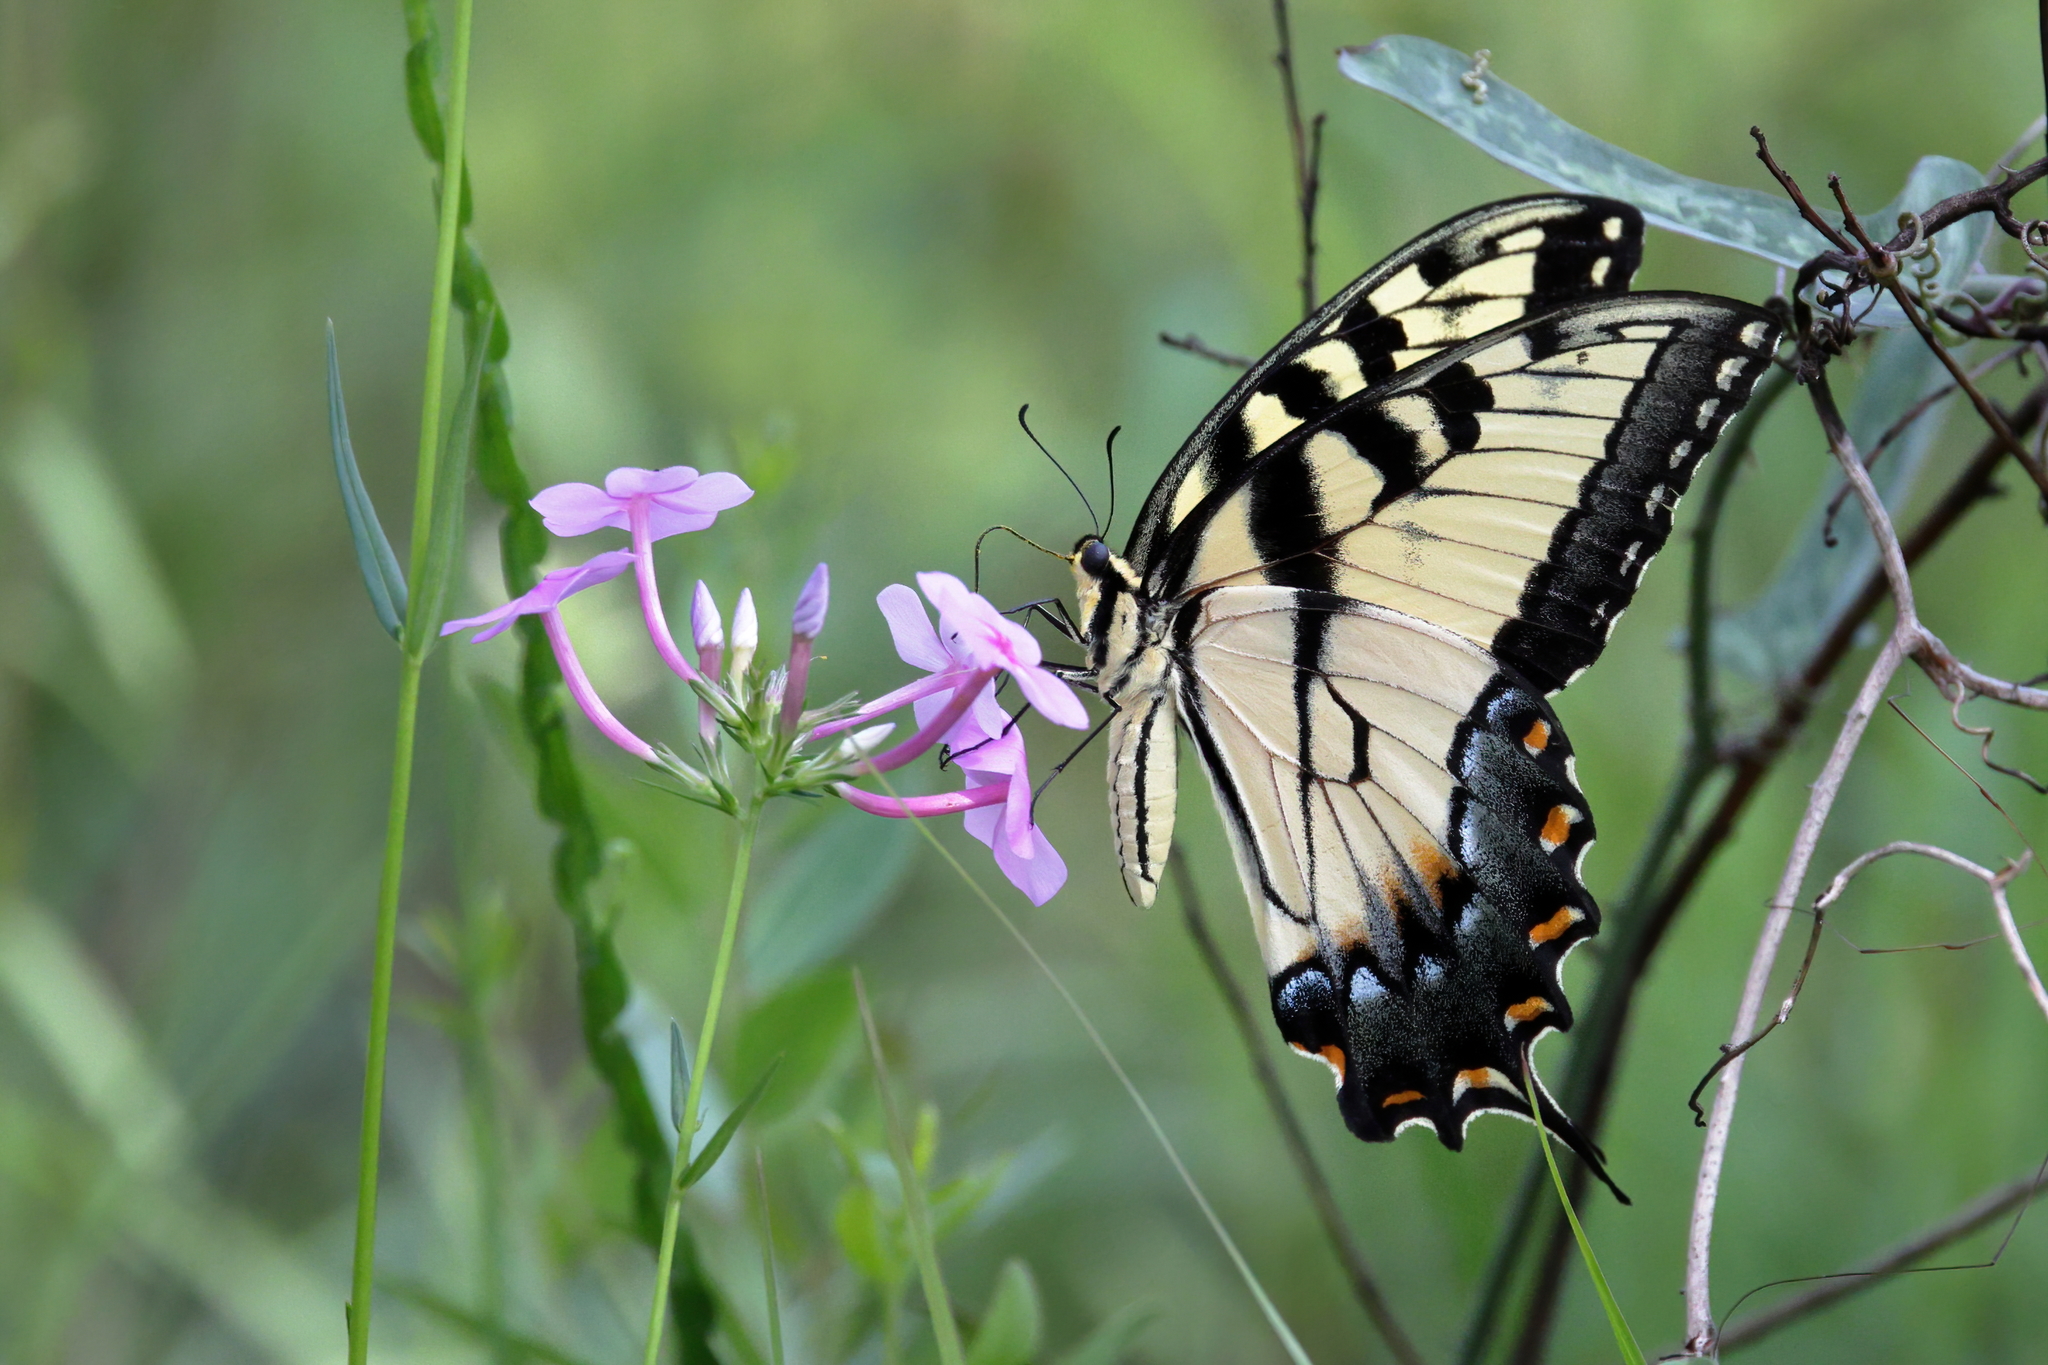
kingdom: Animalia
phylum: Arthropoda
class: Insecta
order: Lepidoptera
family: Papilionidae
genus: Papilio
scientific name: Papilio glaucus
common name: Tiger swallowtail
